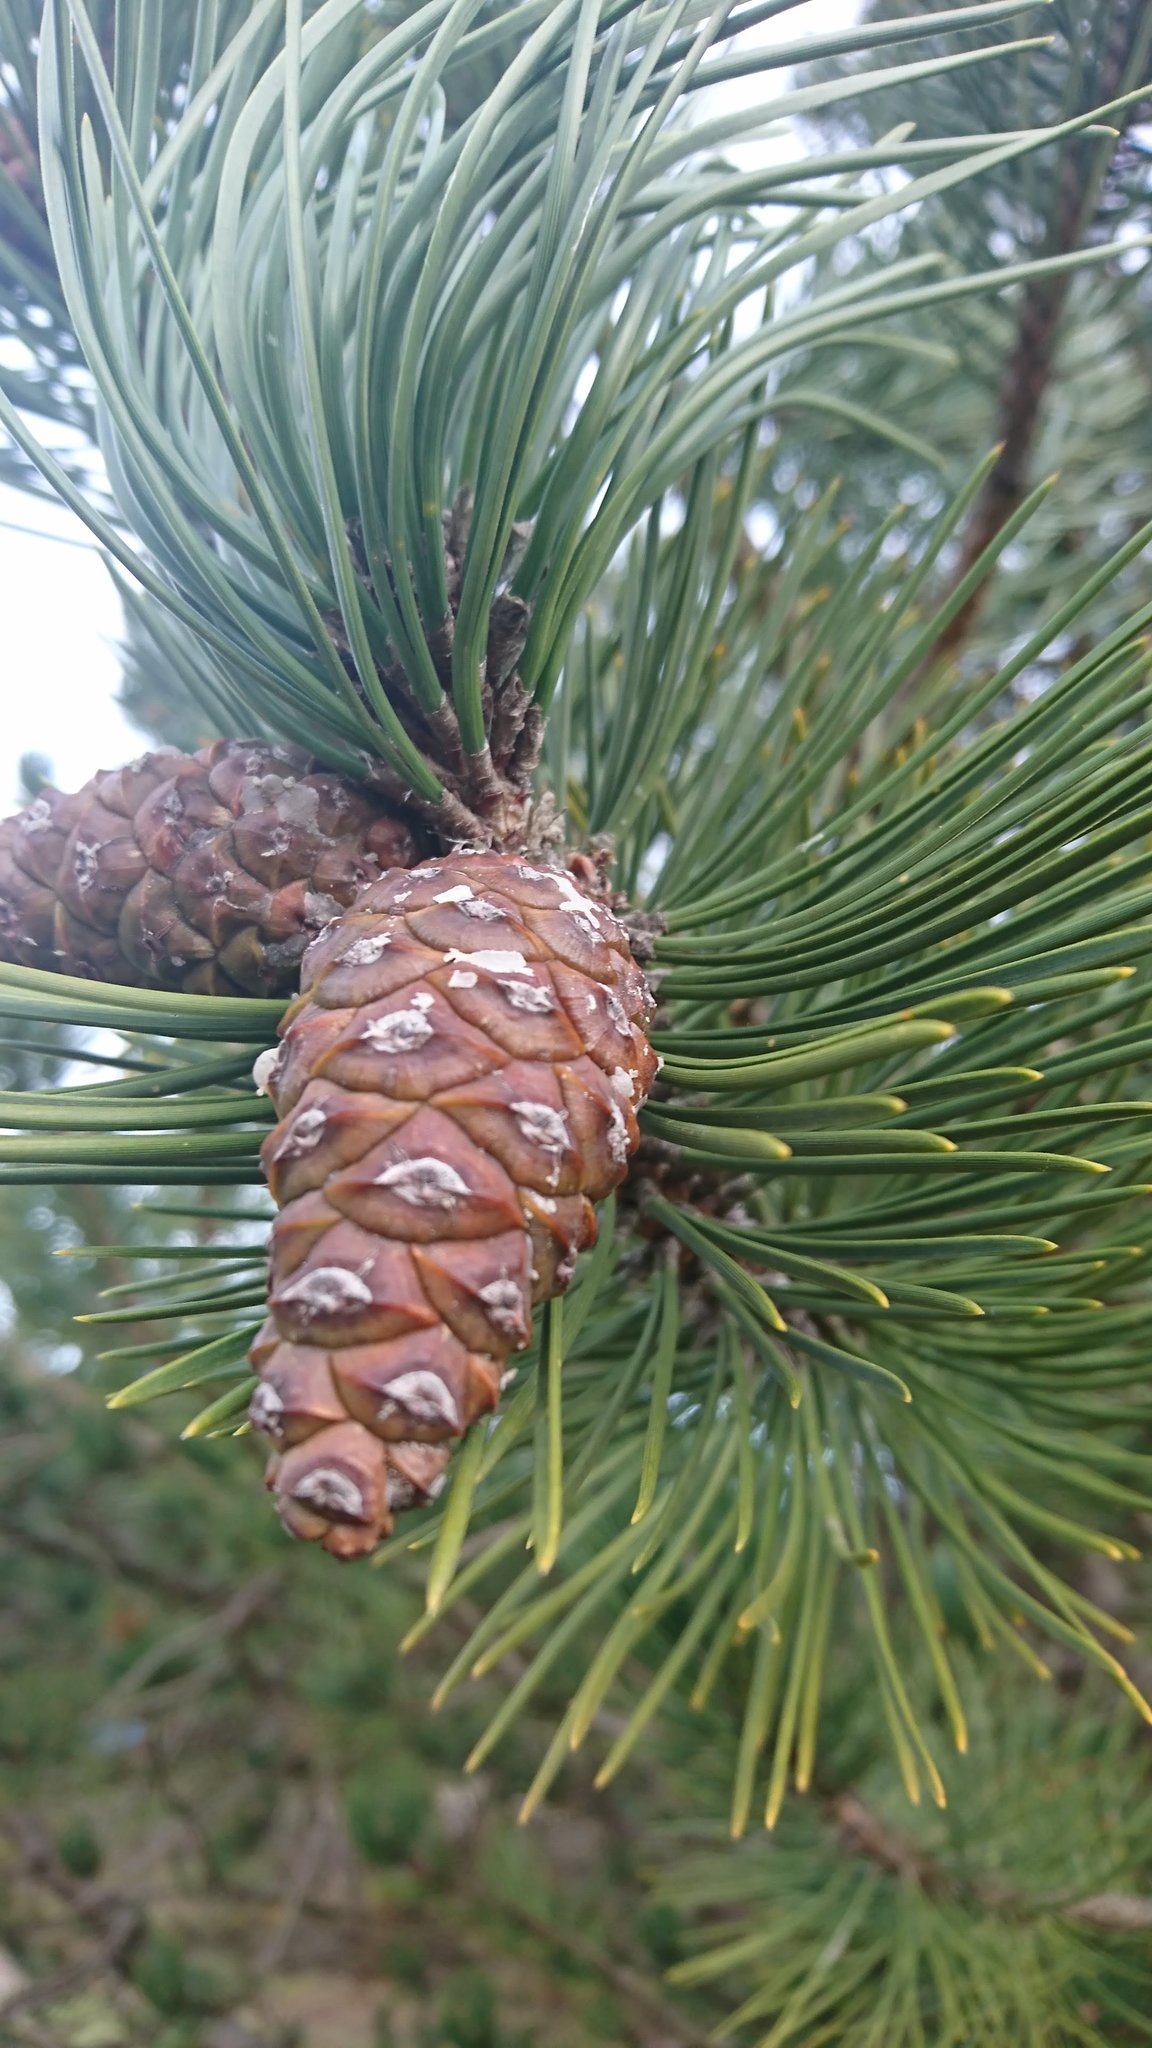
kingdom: Plantae
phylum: Tracheophyta
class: Pinopsida
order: Pinales
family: Pinaceae
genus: Pinus
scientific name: Pinus nigra
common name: Austrian pine
